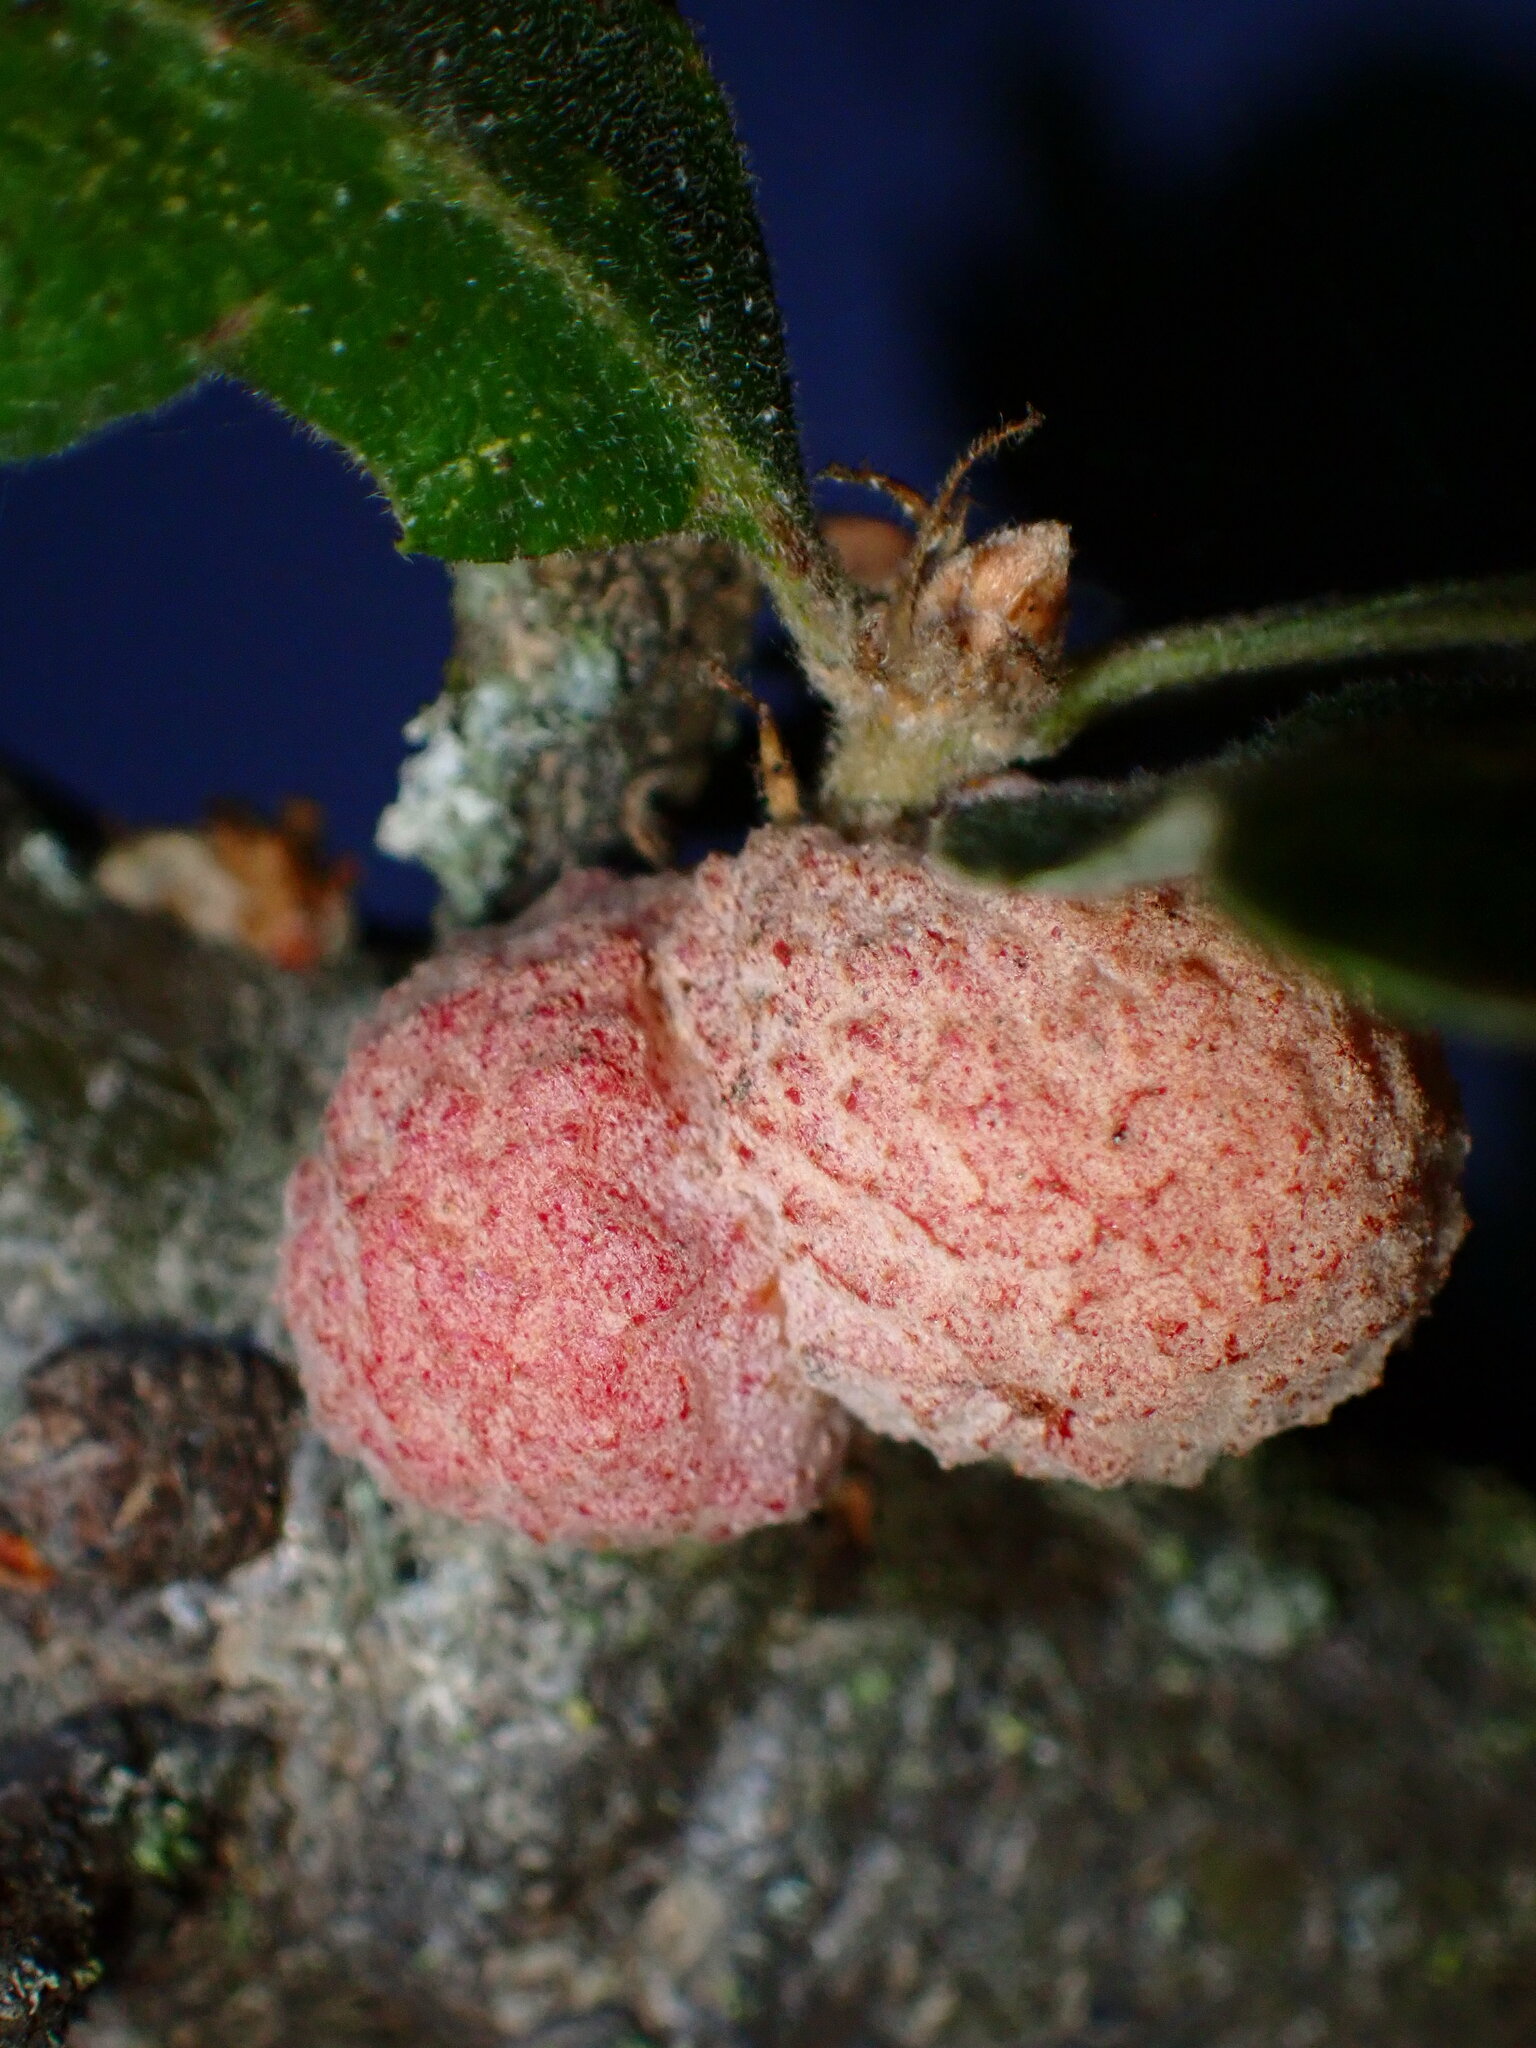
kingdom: Animalia
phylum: Arthropoda
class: Insecta
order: Hymenoptera
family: Cynipidae
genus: Cynips
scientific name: Cynips conspicua
